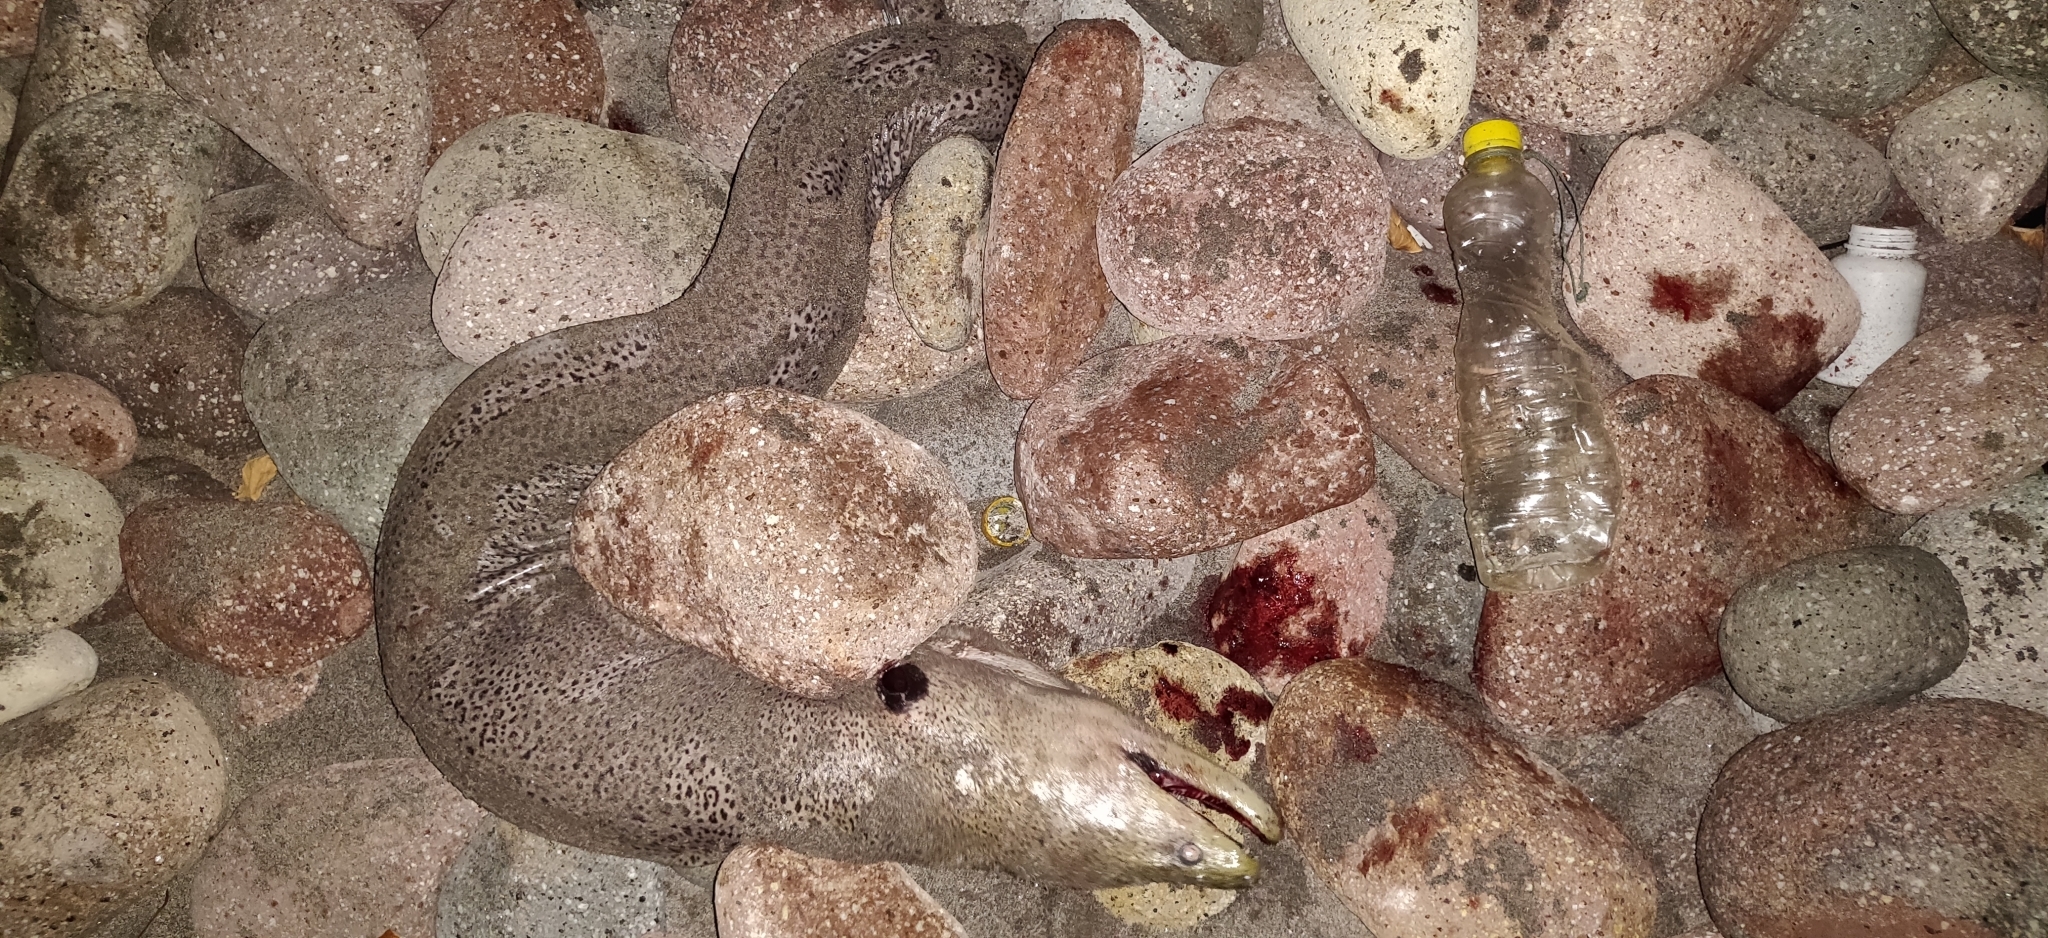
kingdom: Animalia
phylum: Chordata
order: Anguilliformes
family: Muraenidae
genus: Gymnothorax
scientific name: Gymnothorax javanicus
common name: Giant moray
